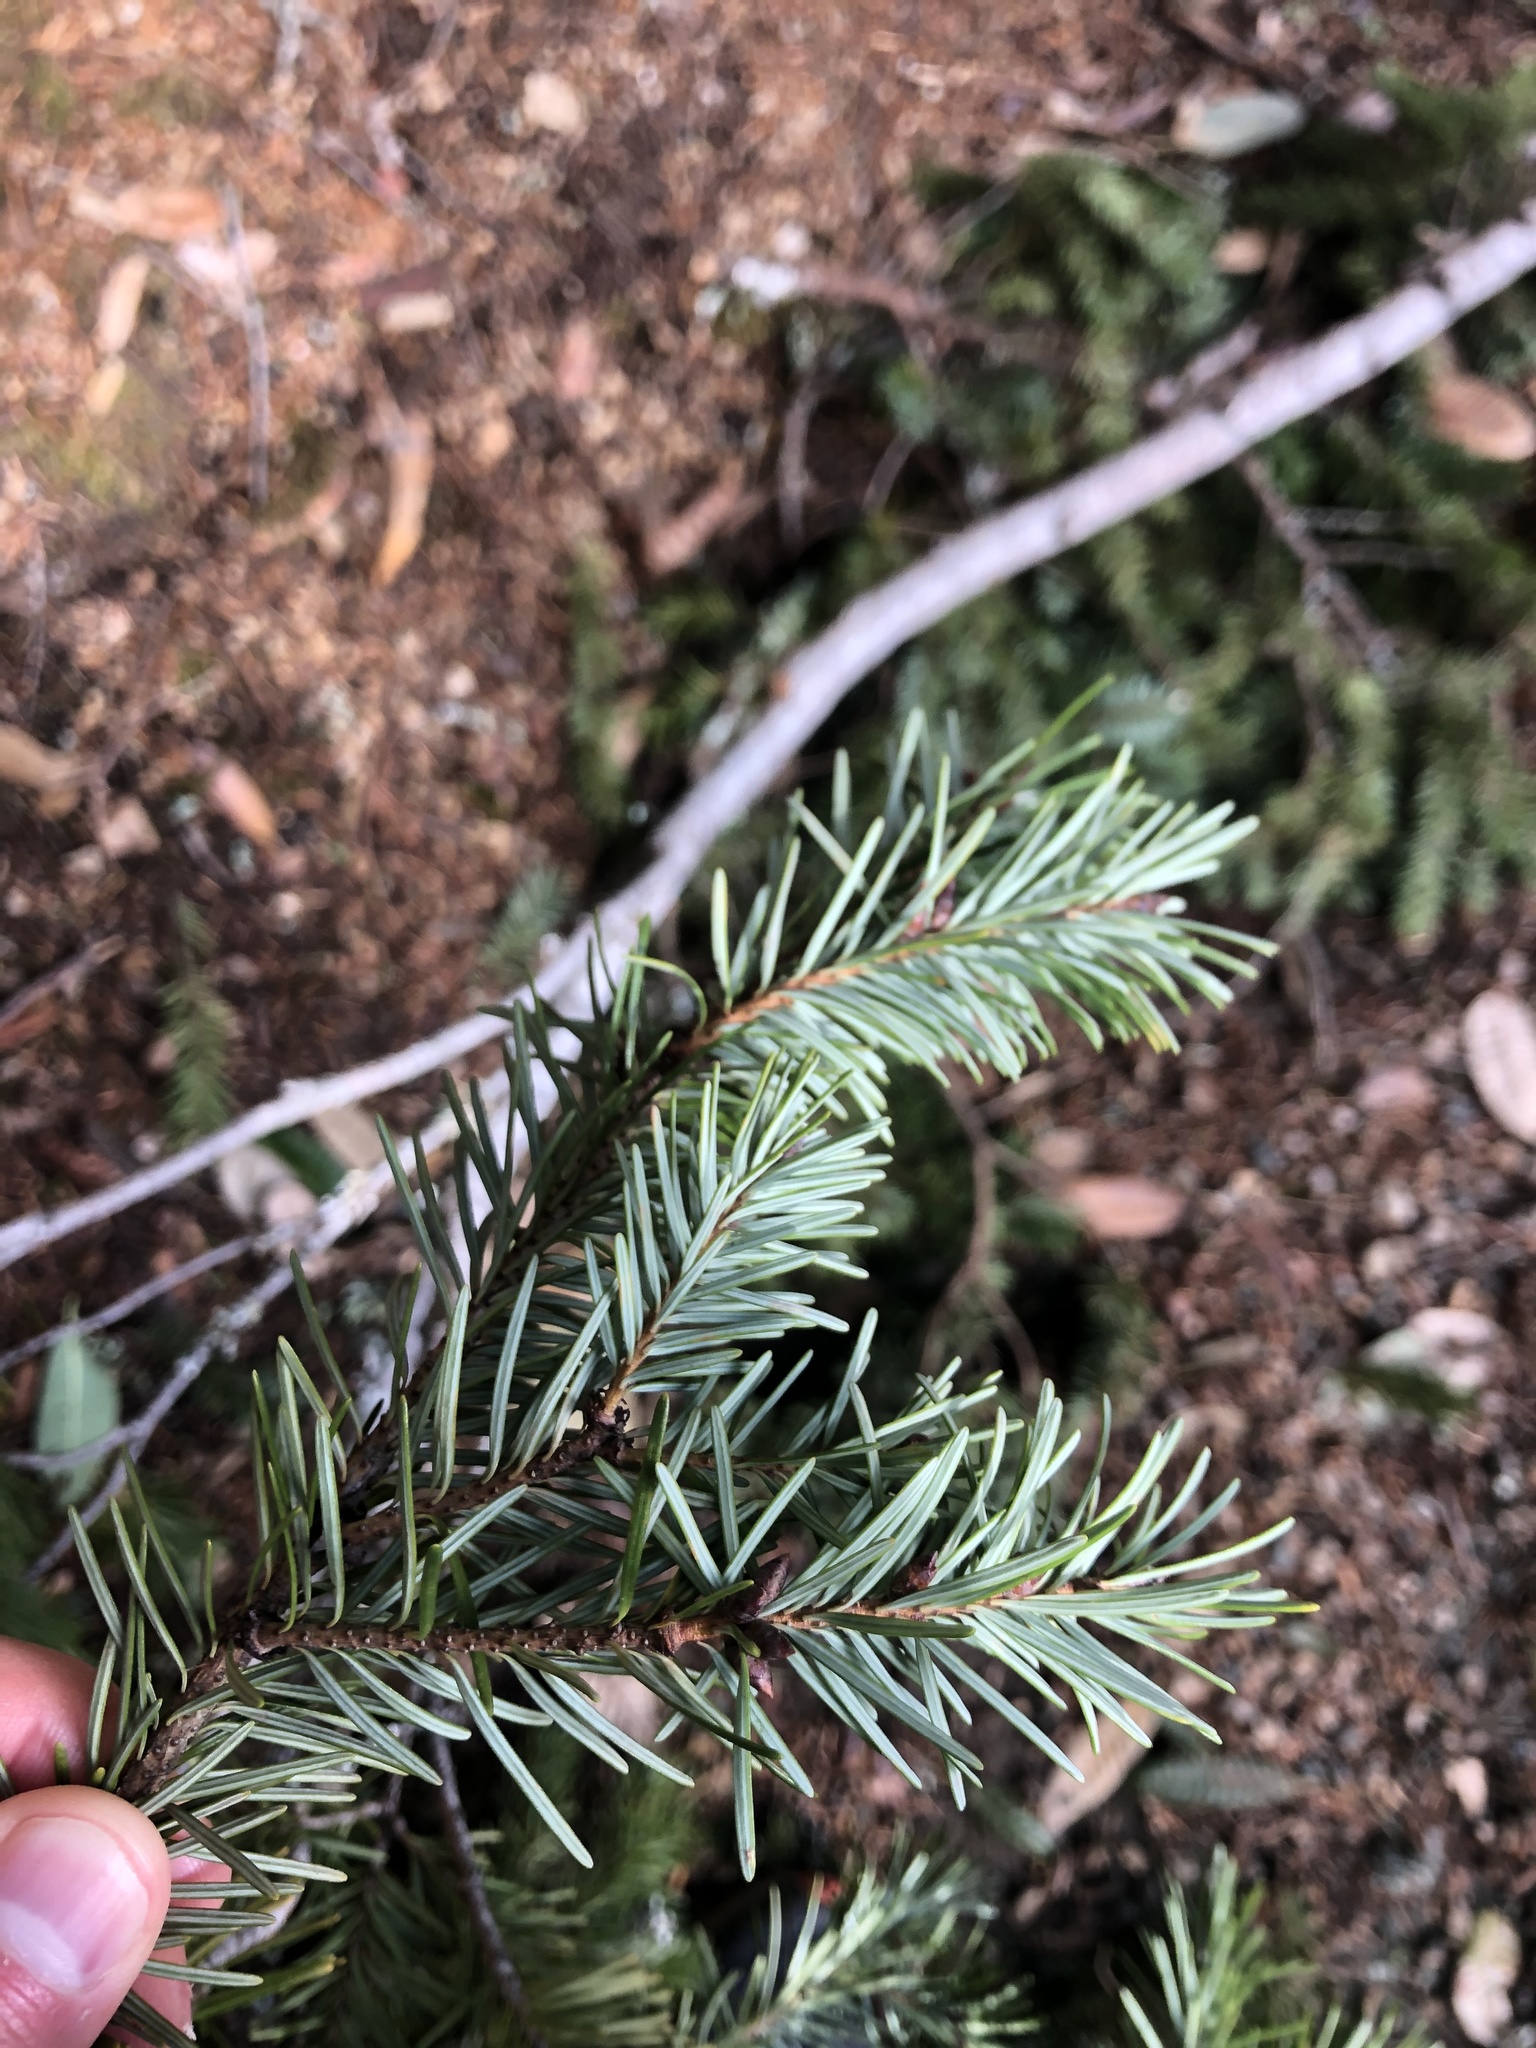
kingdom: Plantae
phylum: Tracheophyta
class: Pinopsida
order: Pinales
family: Pinaceae
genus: Pseudotsuga
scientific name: Pseudotsuga menziesii
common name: Douglas fir
